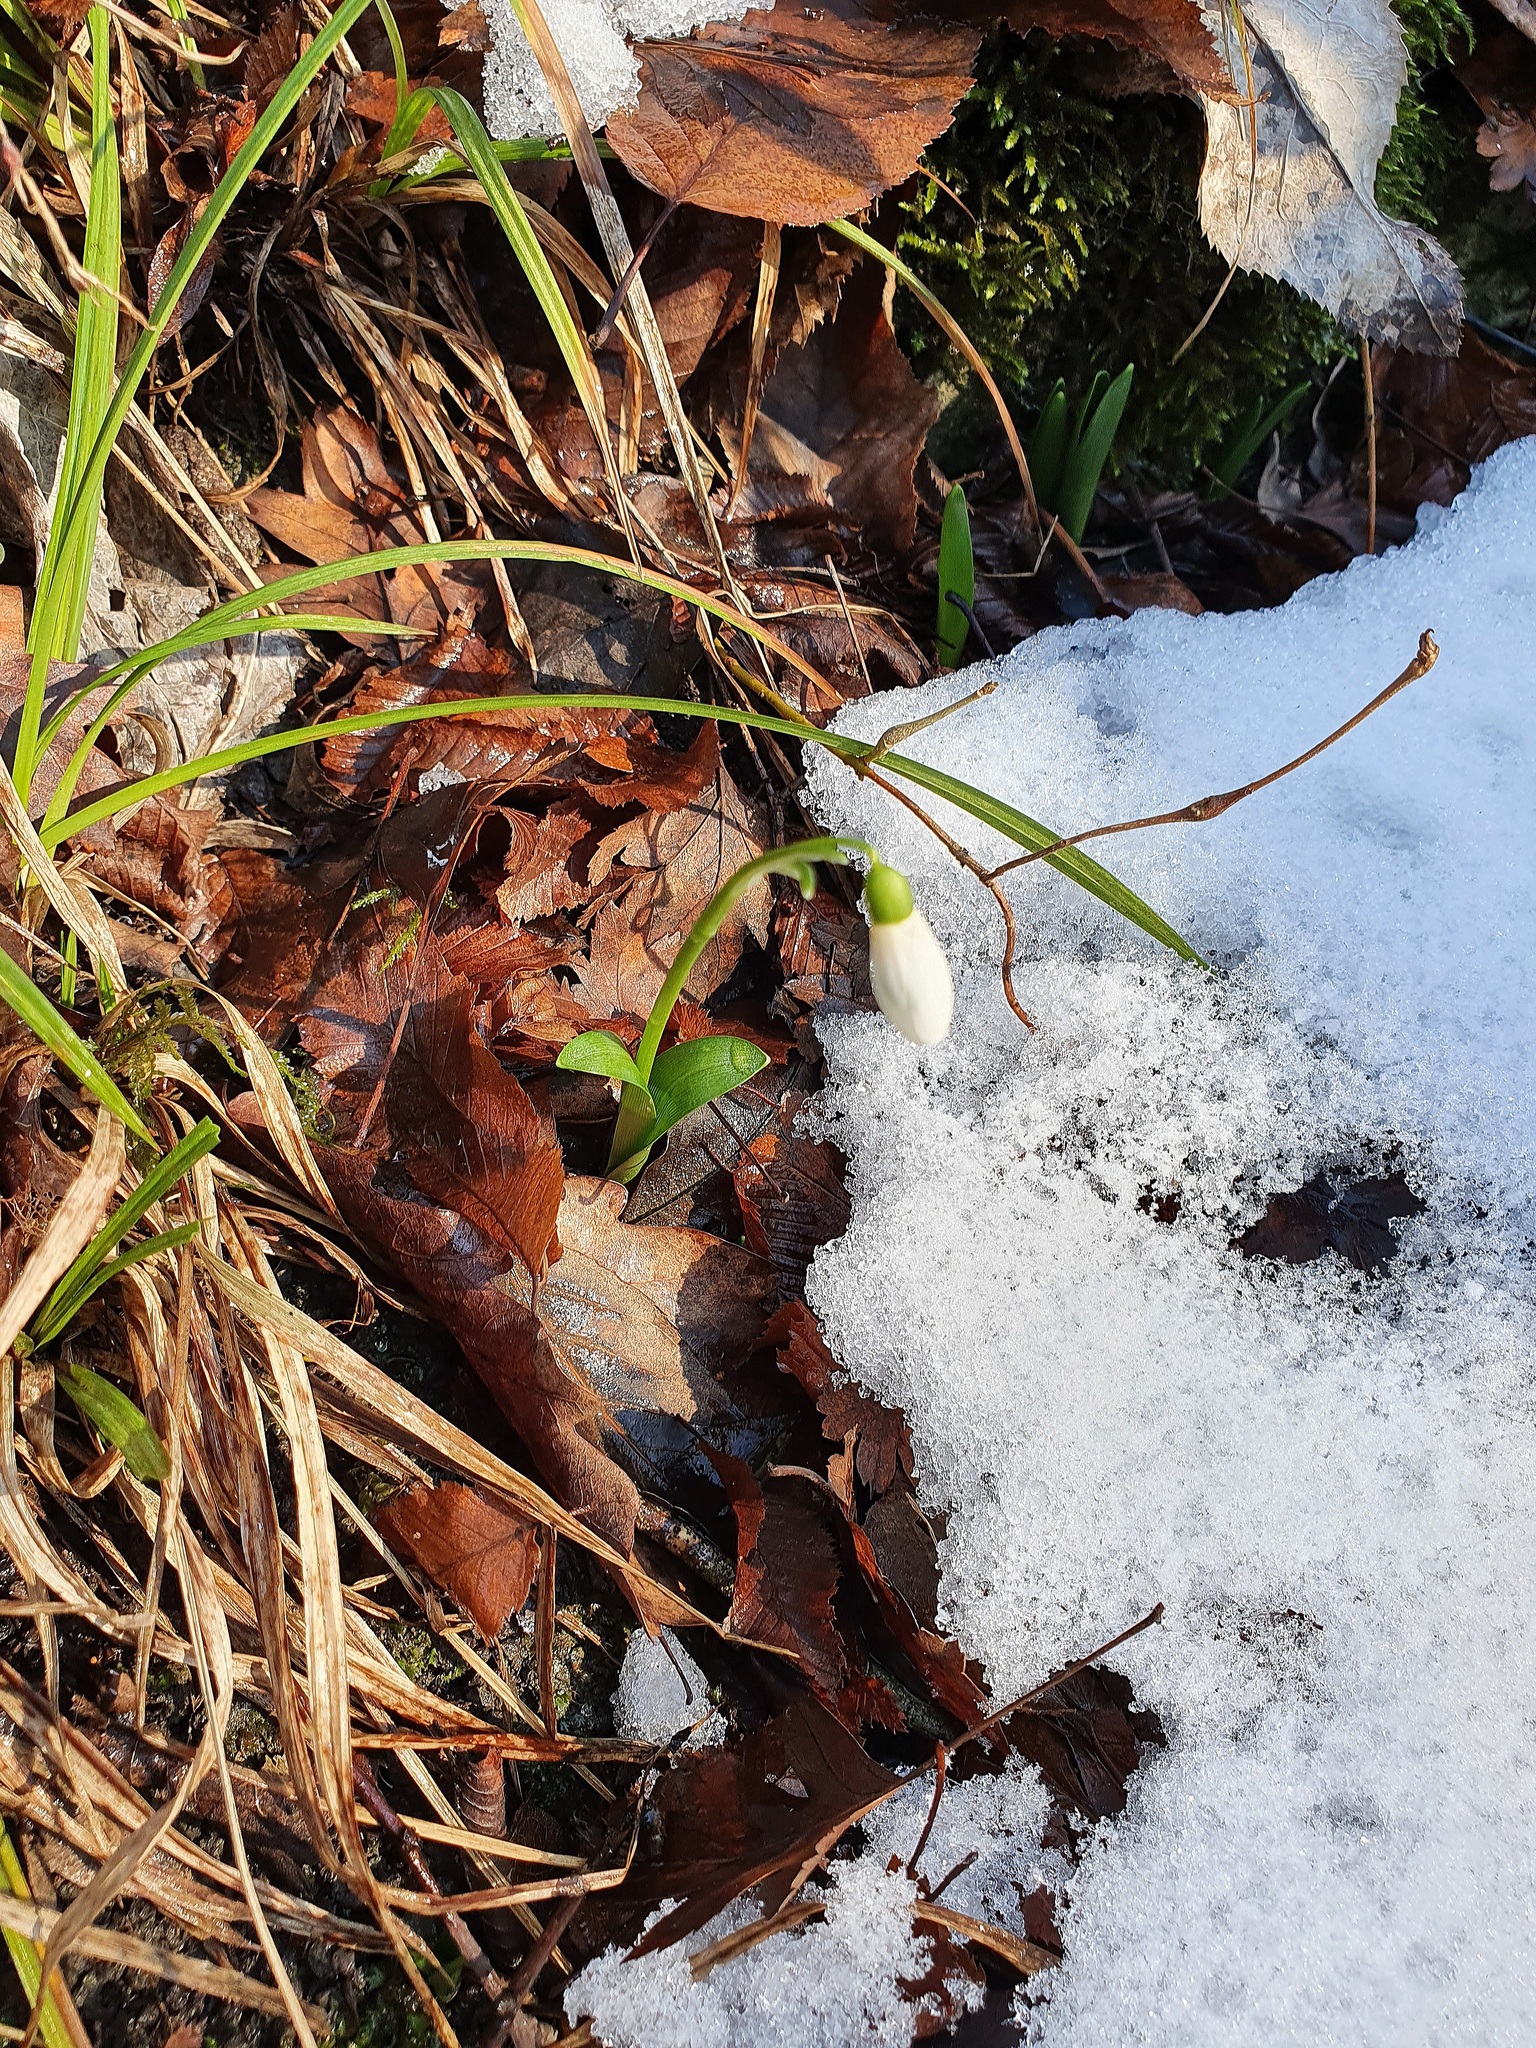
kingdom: Plantae
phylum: Tracheophyta
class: Liliopsida
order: Asparagales
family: Amaryllidaceae
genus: Galanthus
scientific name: Galanthus woronowii
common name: Green snowdrop
